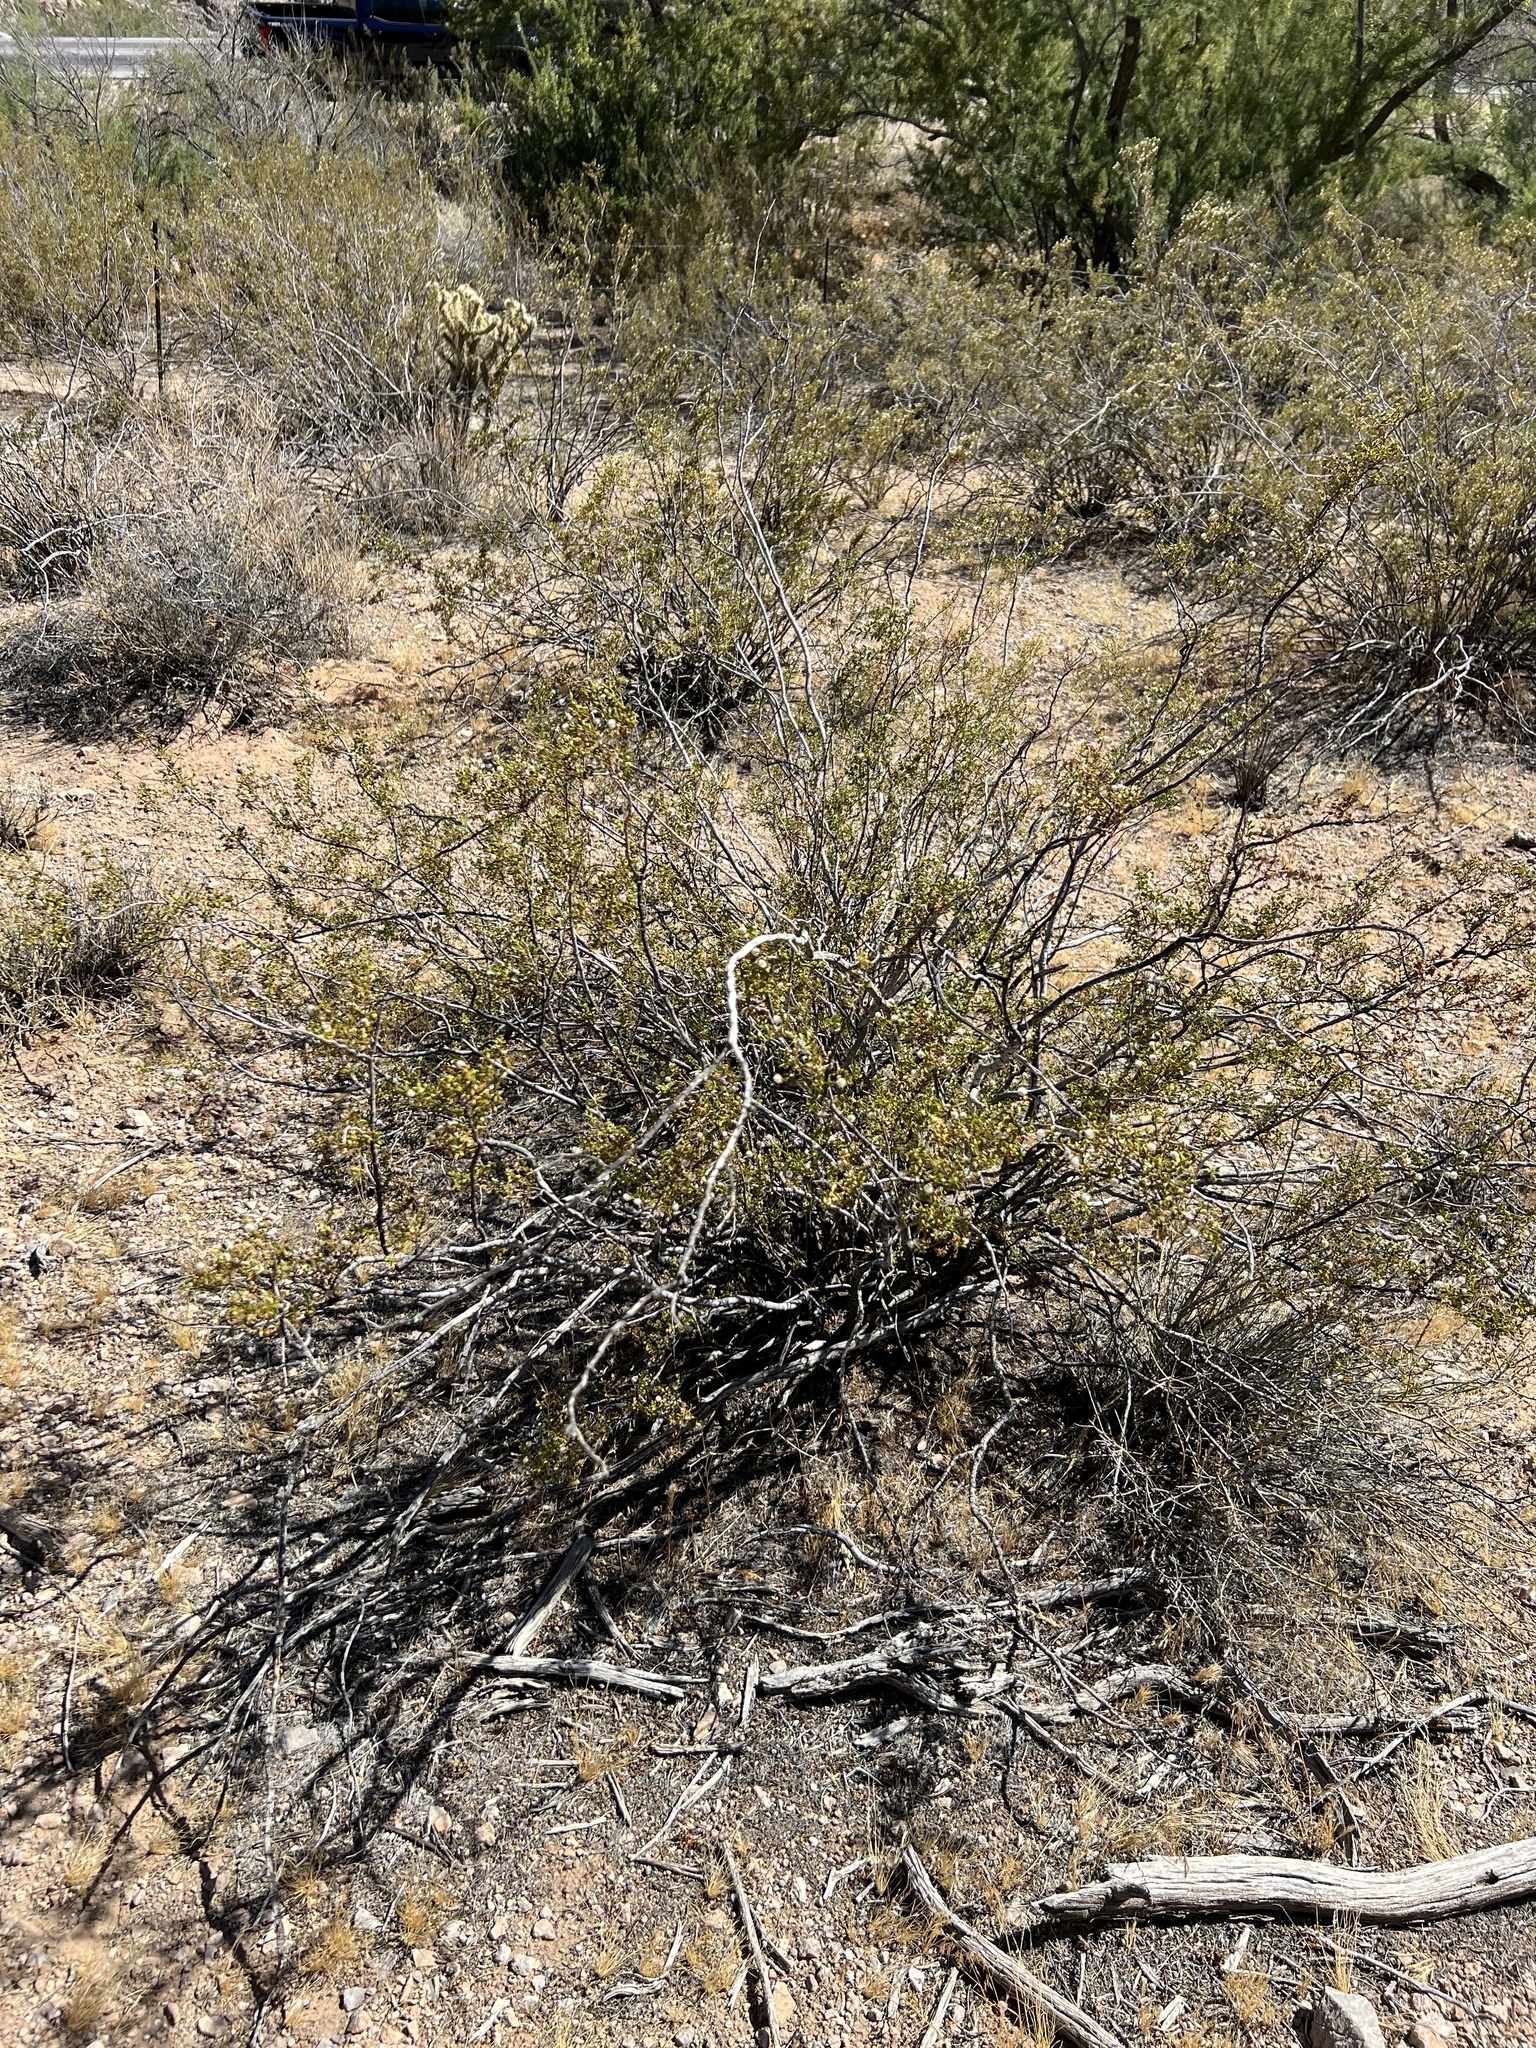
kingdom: Plantae
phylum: Tracheophyta
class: Magnoliopsida
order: Zygophyllales
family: Zygophyllaceae
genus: Larrea
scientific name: Larrea tridentata
